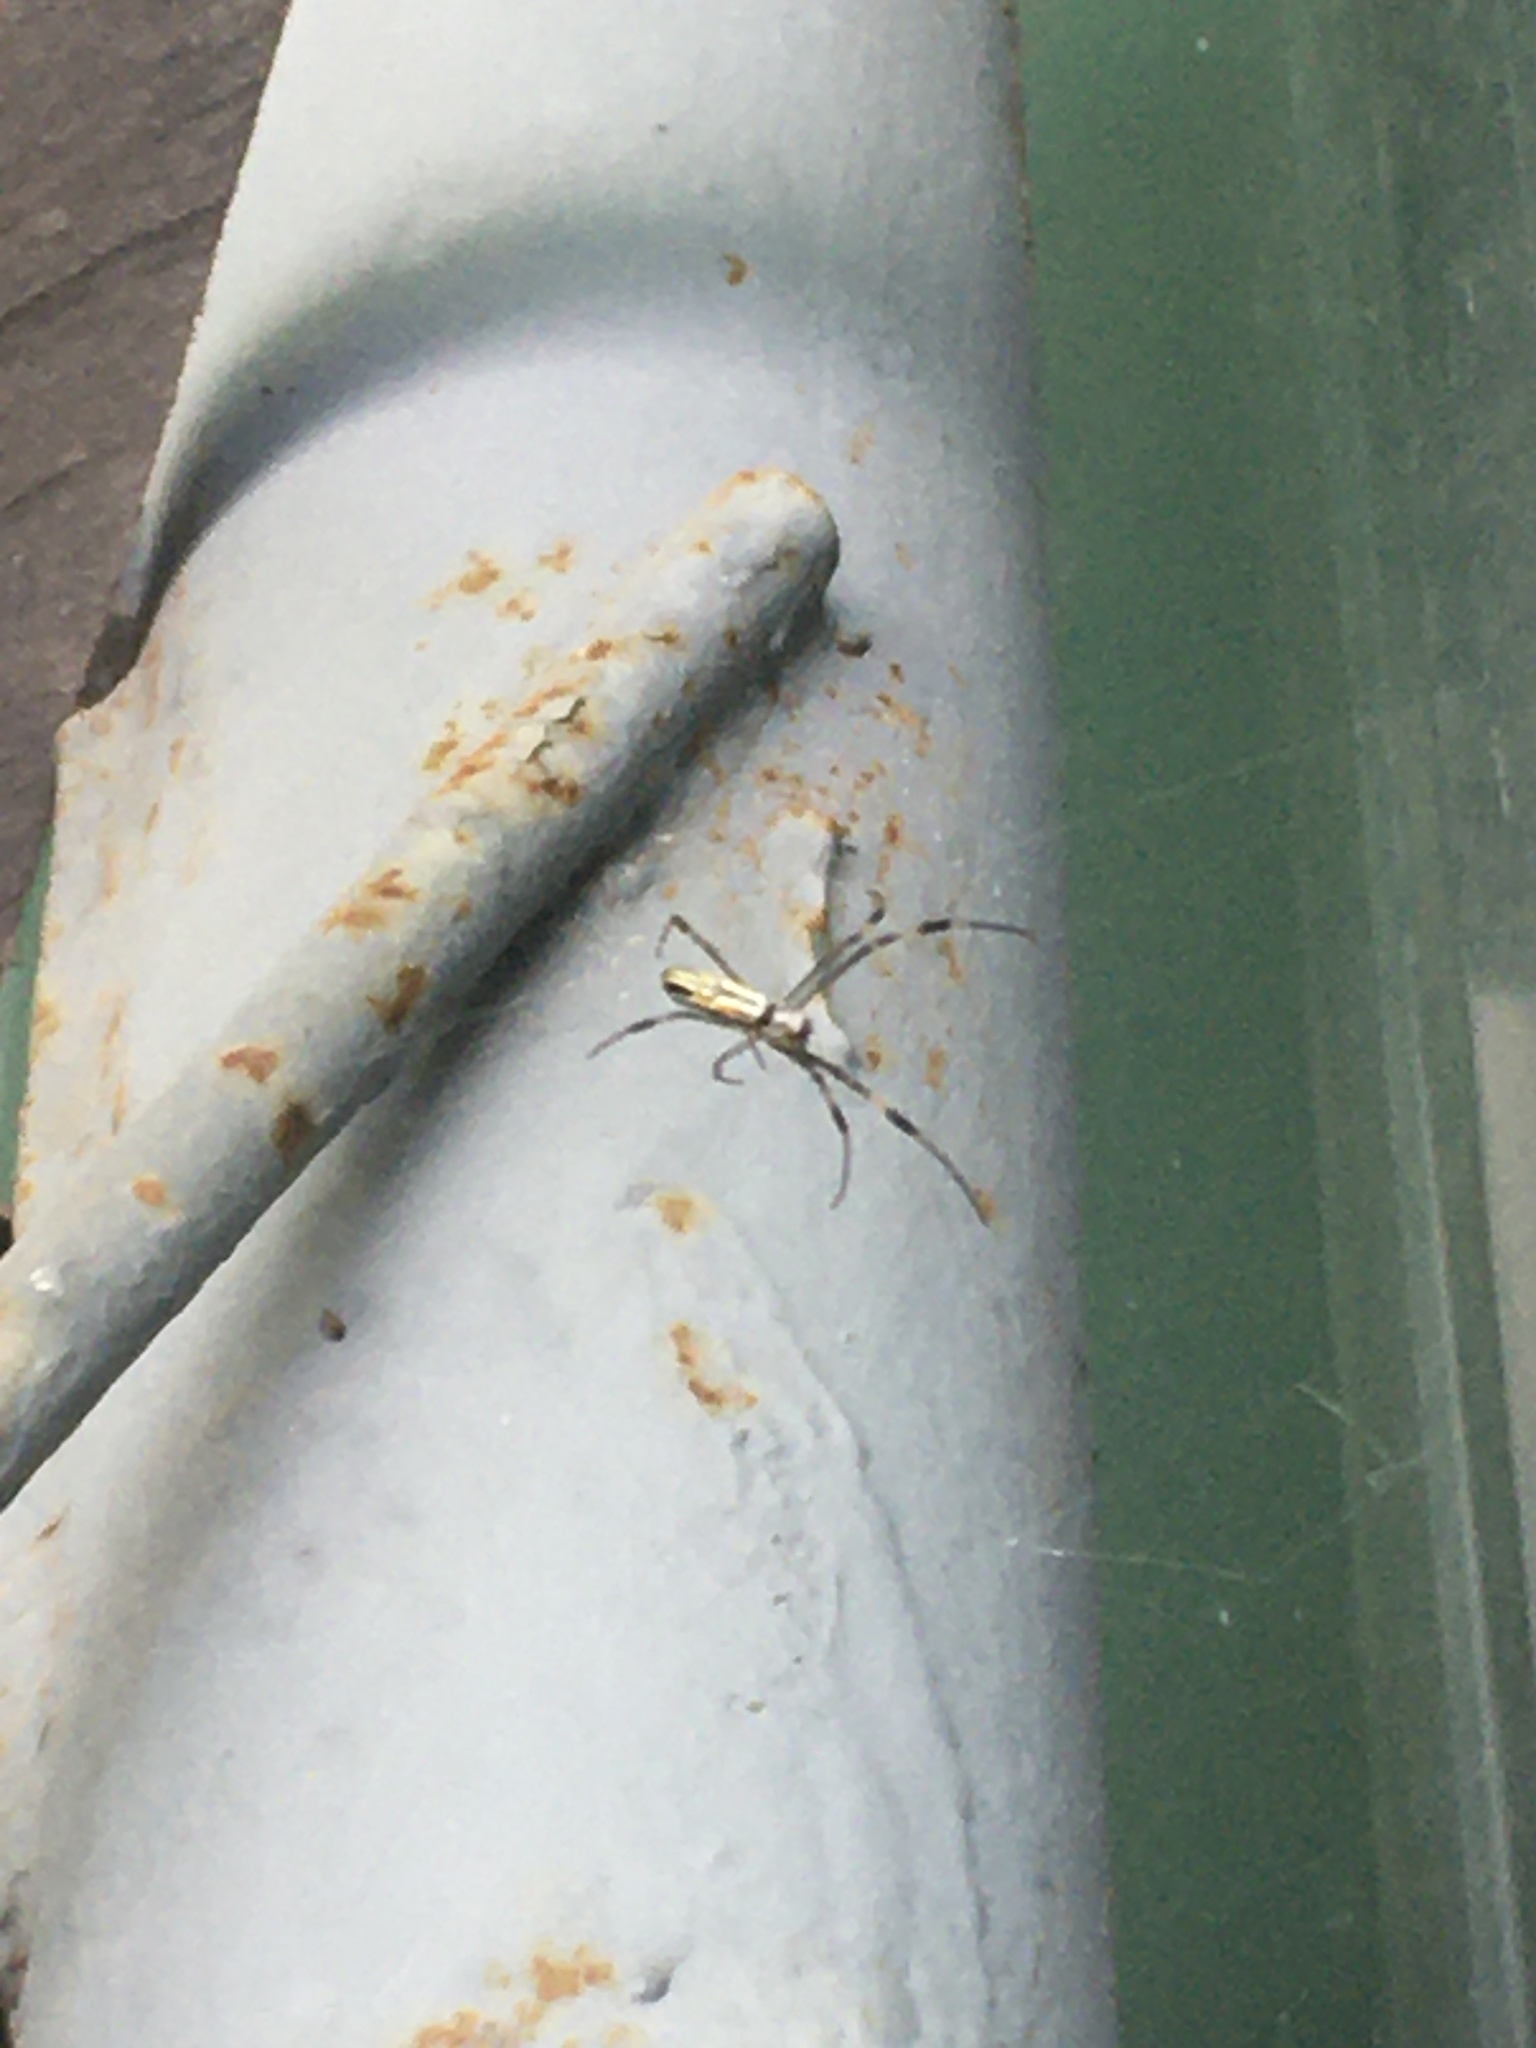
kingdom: Animalia
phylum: Arthropoda
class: Arachnida
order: Araneae
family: Araneidae
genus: Trichonephila
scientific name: Trichonephila clavipes
